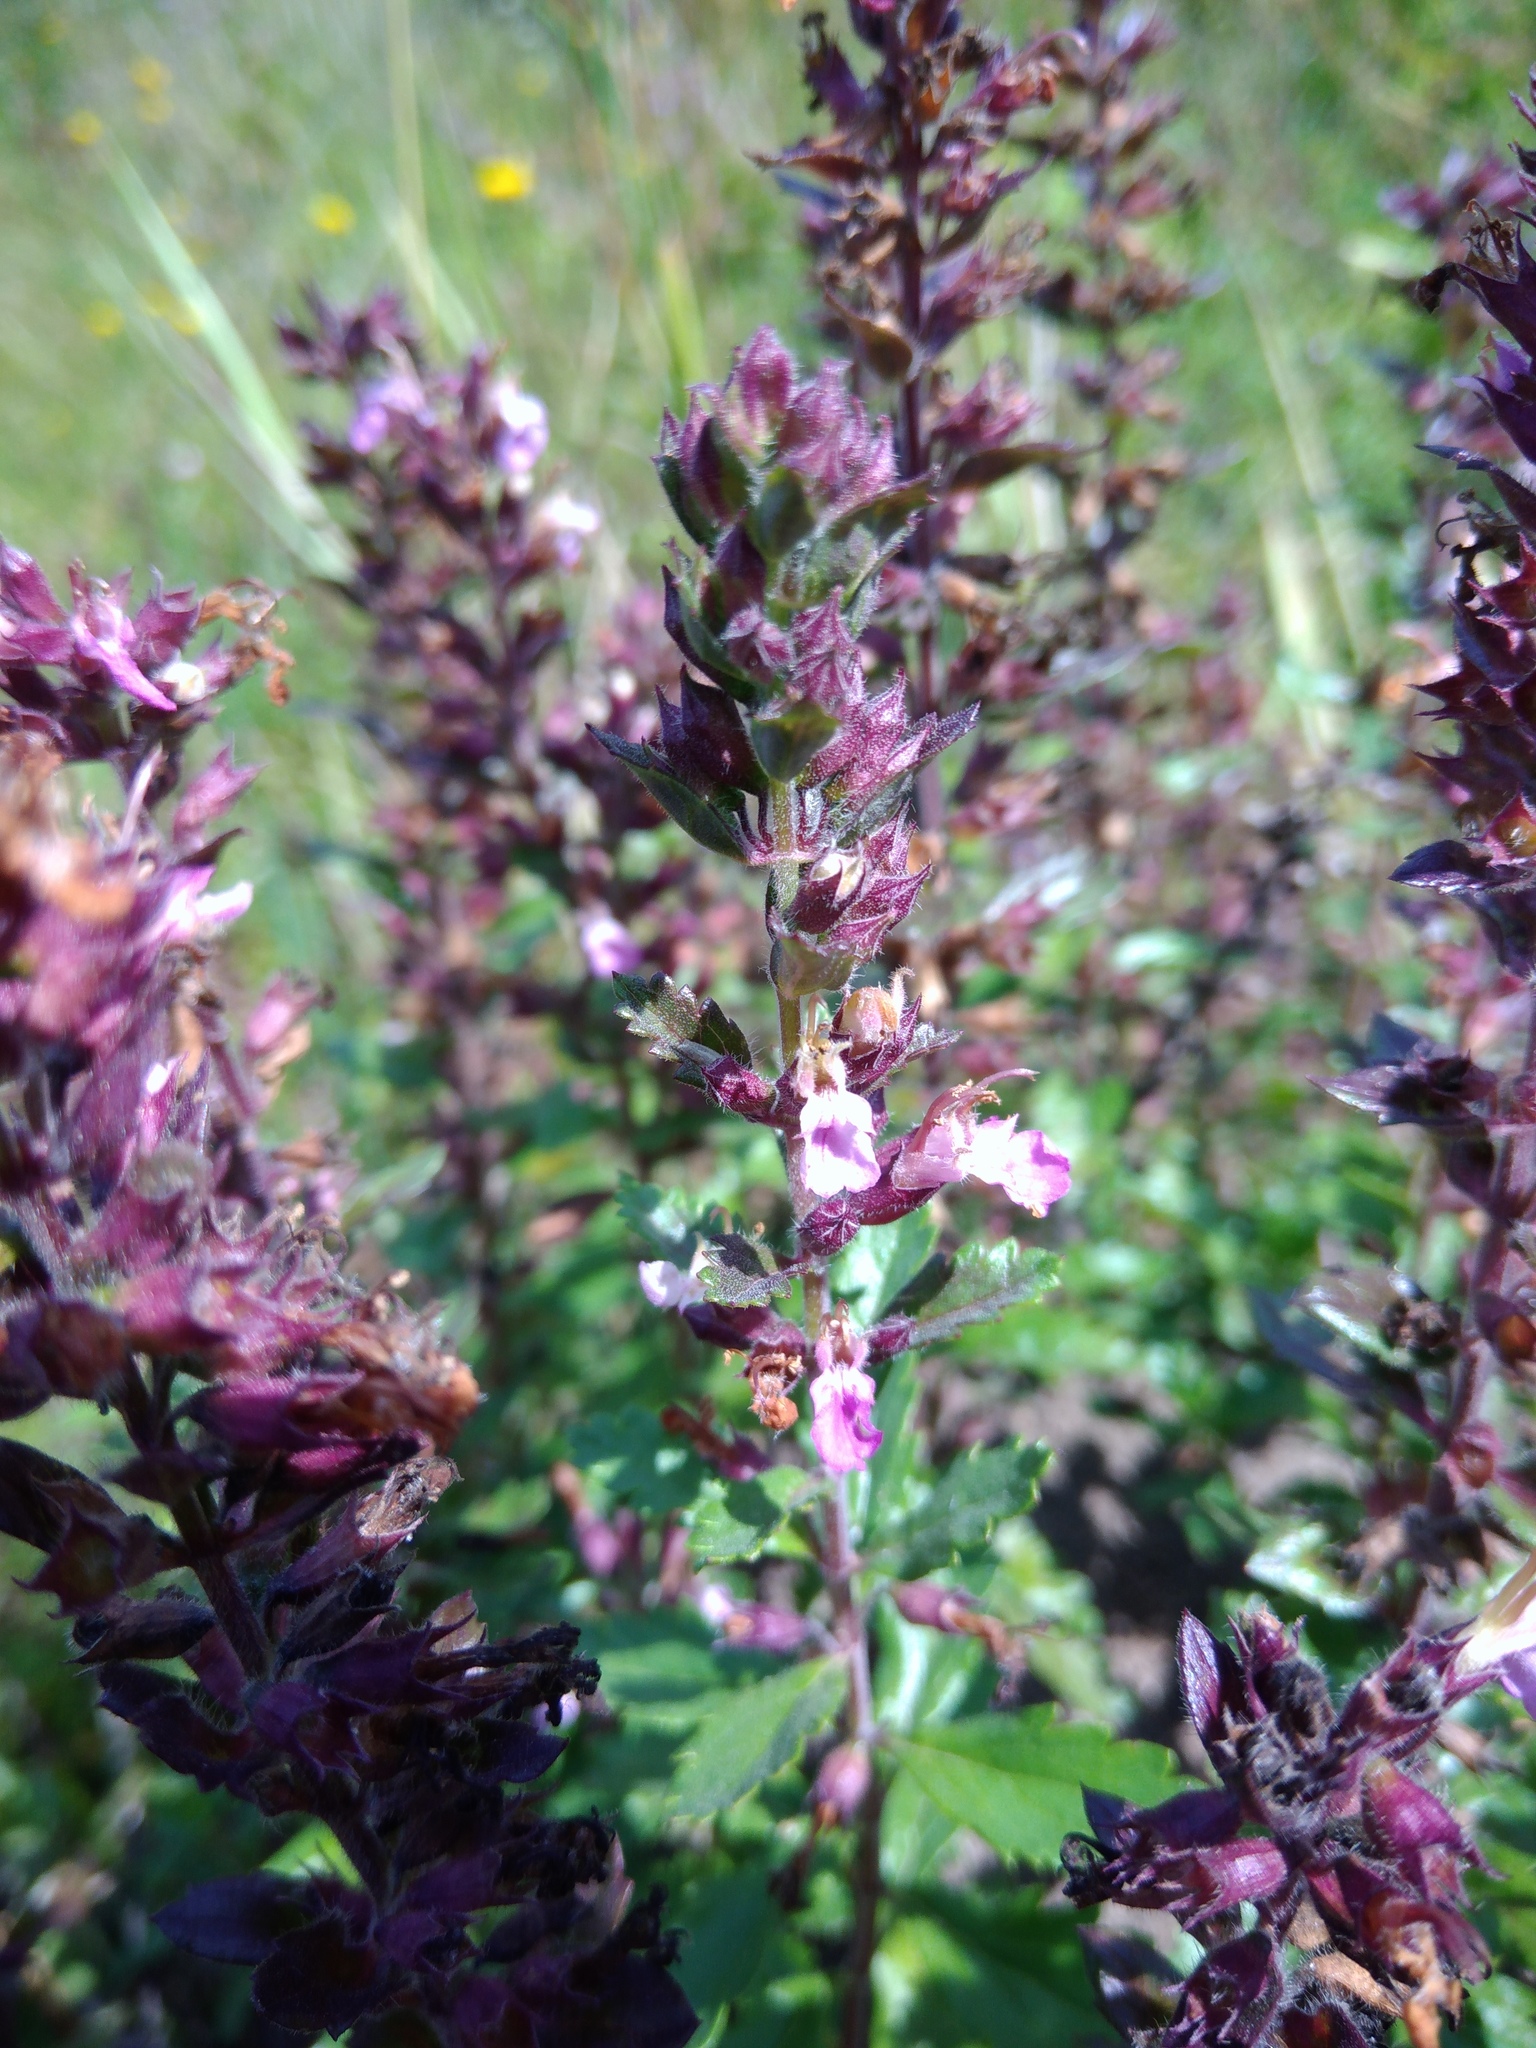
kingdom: Plantae
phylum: Tracheophyta
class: Magnoliopsida
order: Lamiales
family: Lamiaceae
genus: Teucrium
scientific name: Teucrium chamaedrys
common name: Wall germander
